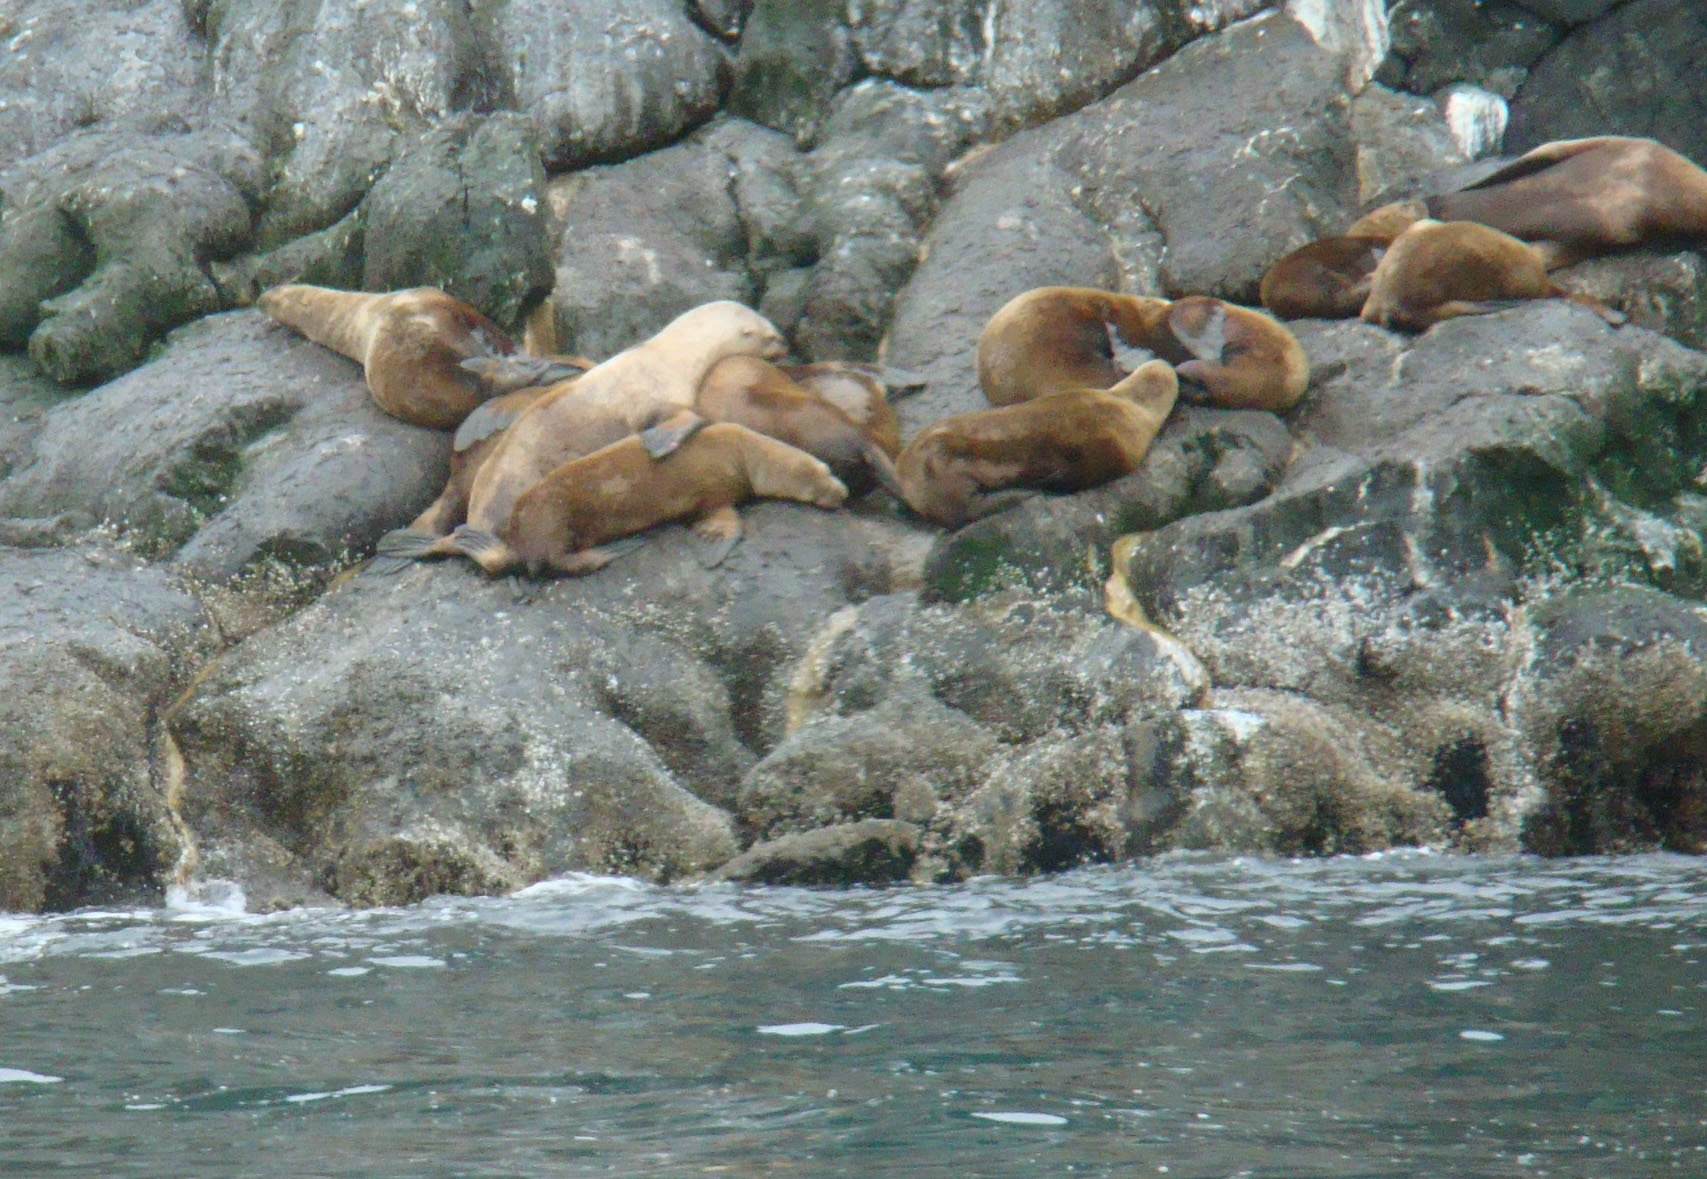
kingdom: Animalia
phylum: Chordata
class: Mammalia
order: Carnivora
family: Otariidae
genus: Eumetopias
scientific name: Eumetopias jubatus
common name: Steller sea lion
